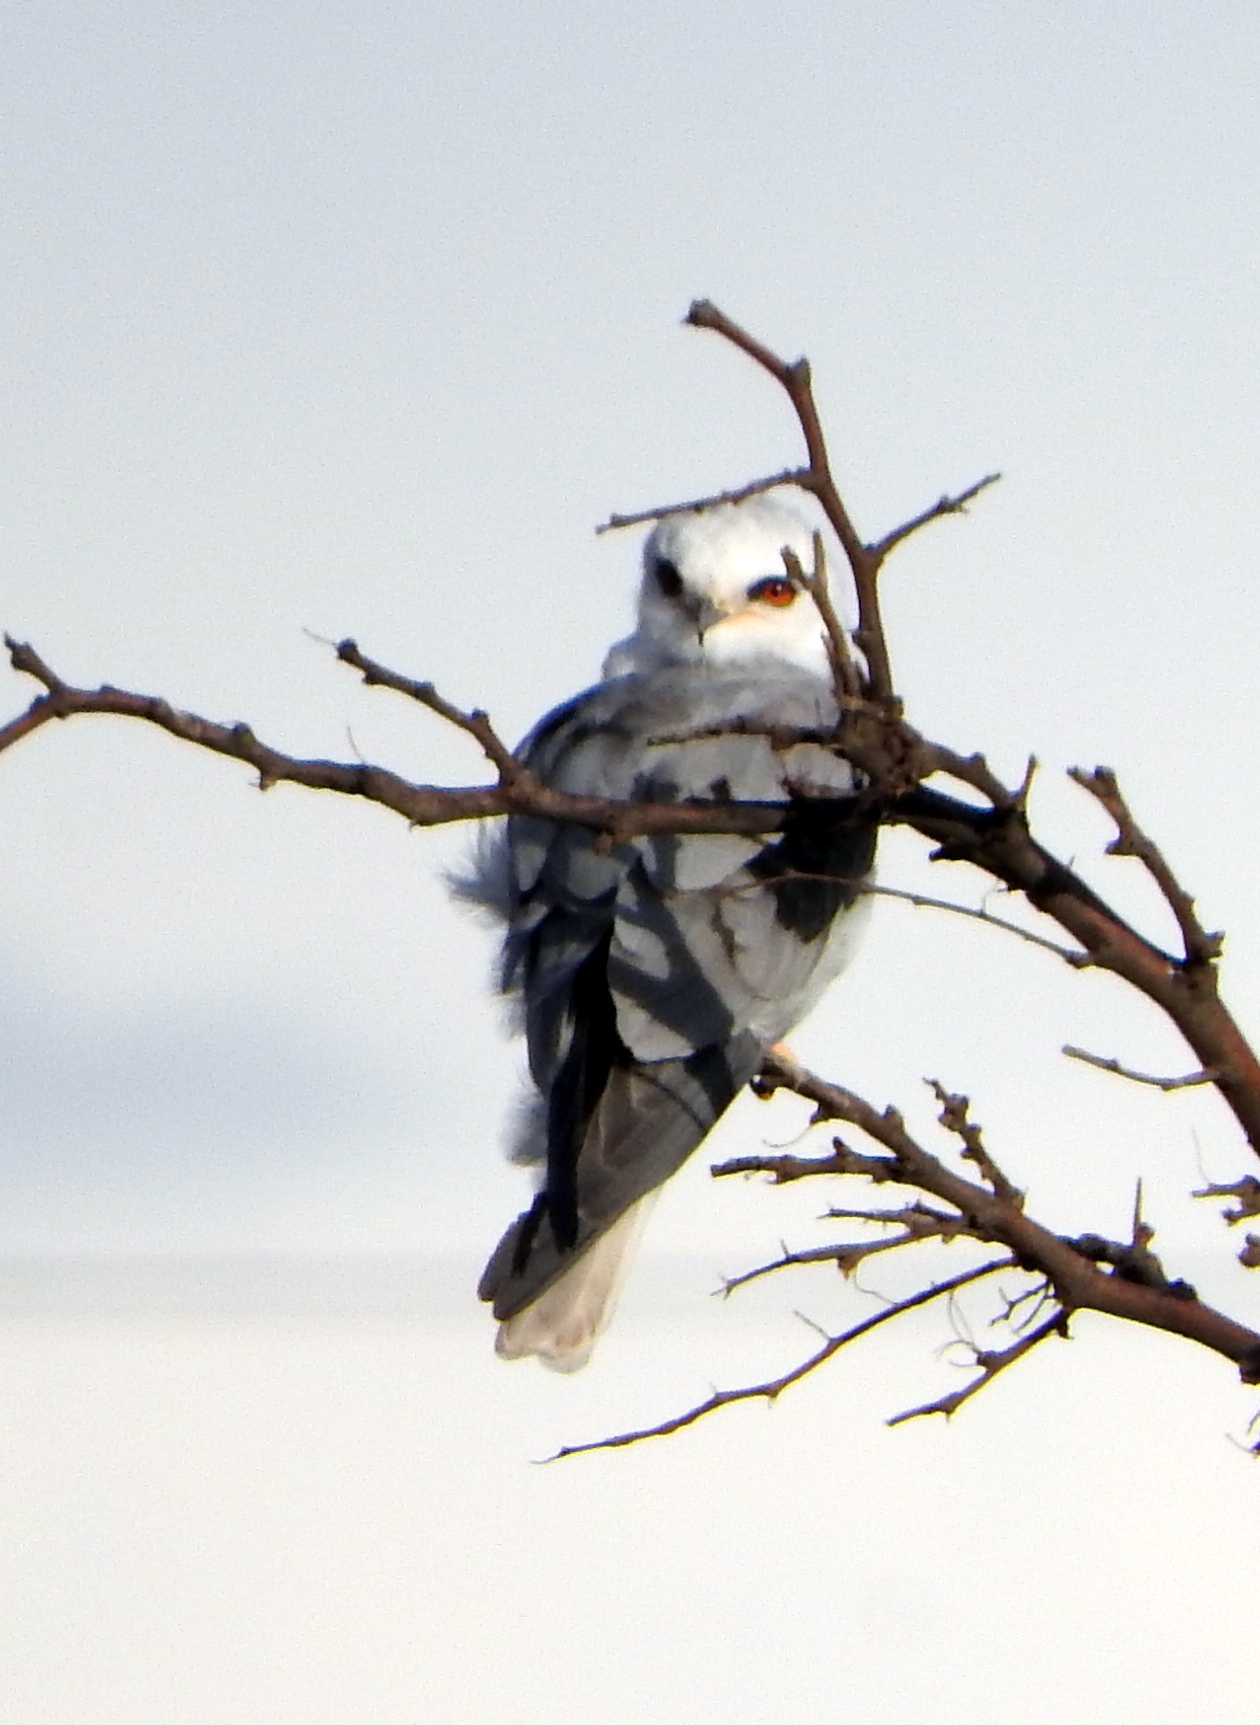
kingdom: Animalia
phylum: Chordata
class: Aves
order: Accipitriformes
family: Accipitridae
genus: Elanus
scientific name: Elanus leucurus
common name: White-tailed kite
